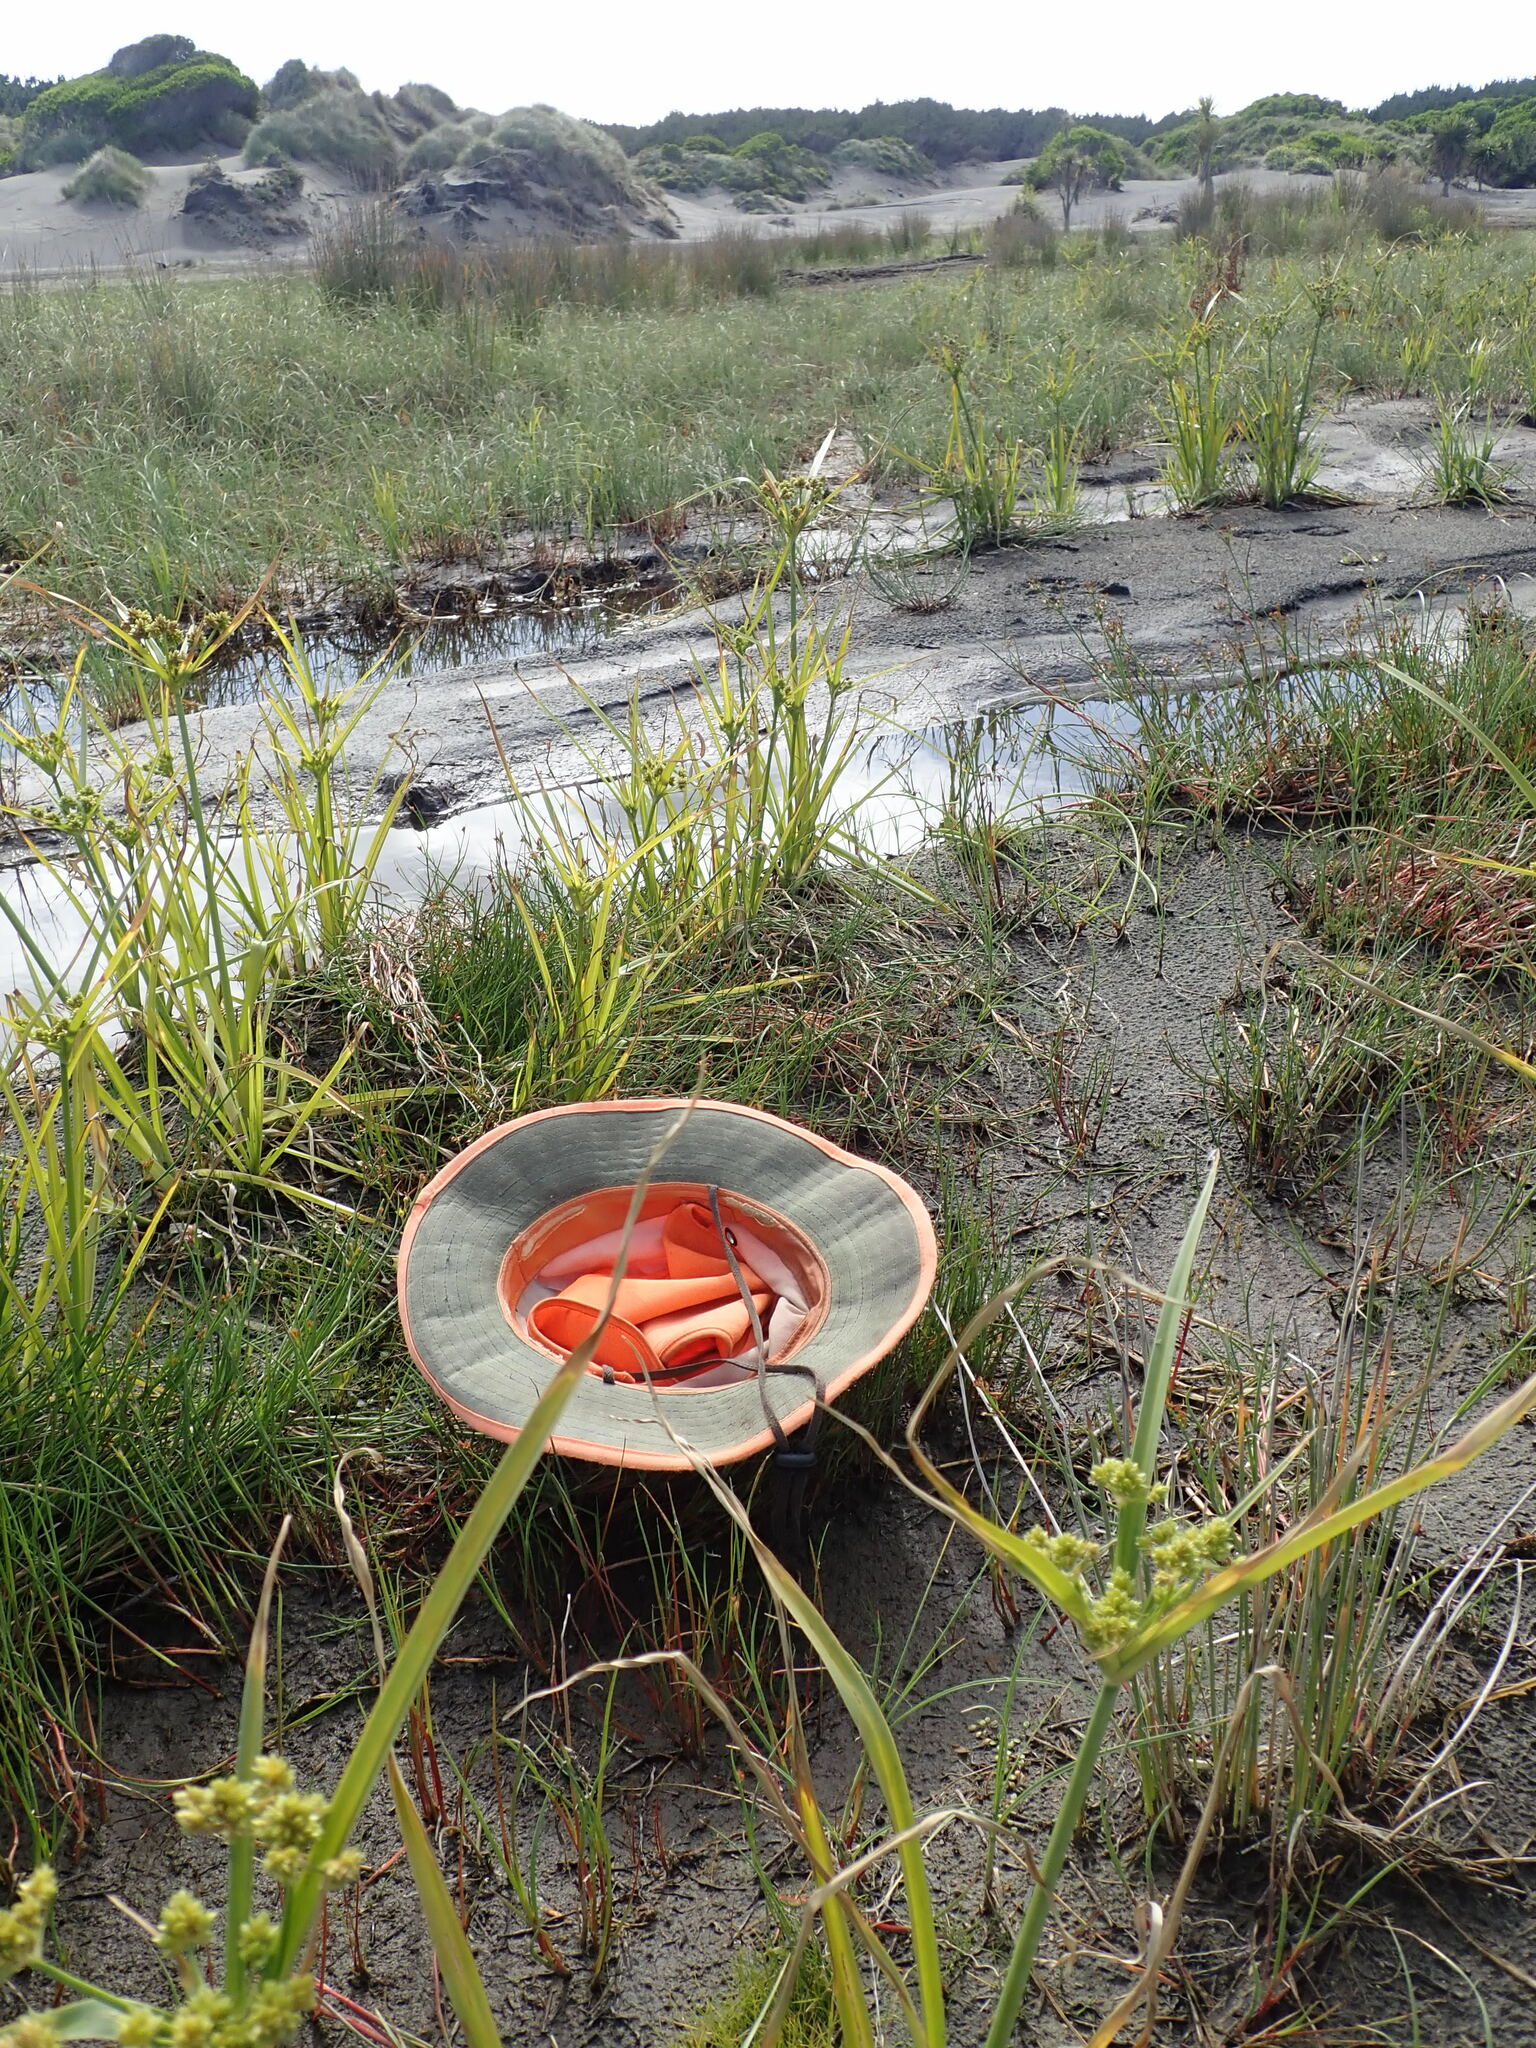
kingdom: Plantae
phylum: Tracheophyta
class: Magnoliopsida
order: Ranunculales
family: Ranunculaceae
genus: Ranunculus
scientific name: Ranunculus sceleratus
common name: Celery-leaved buttercup
